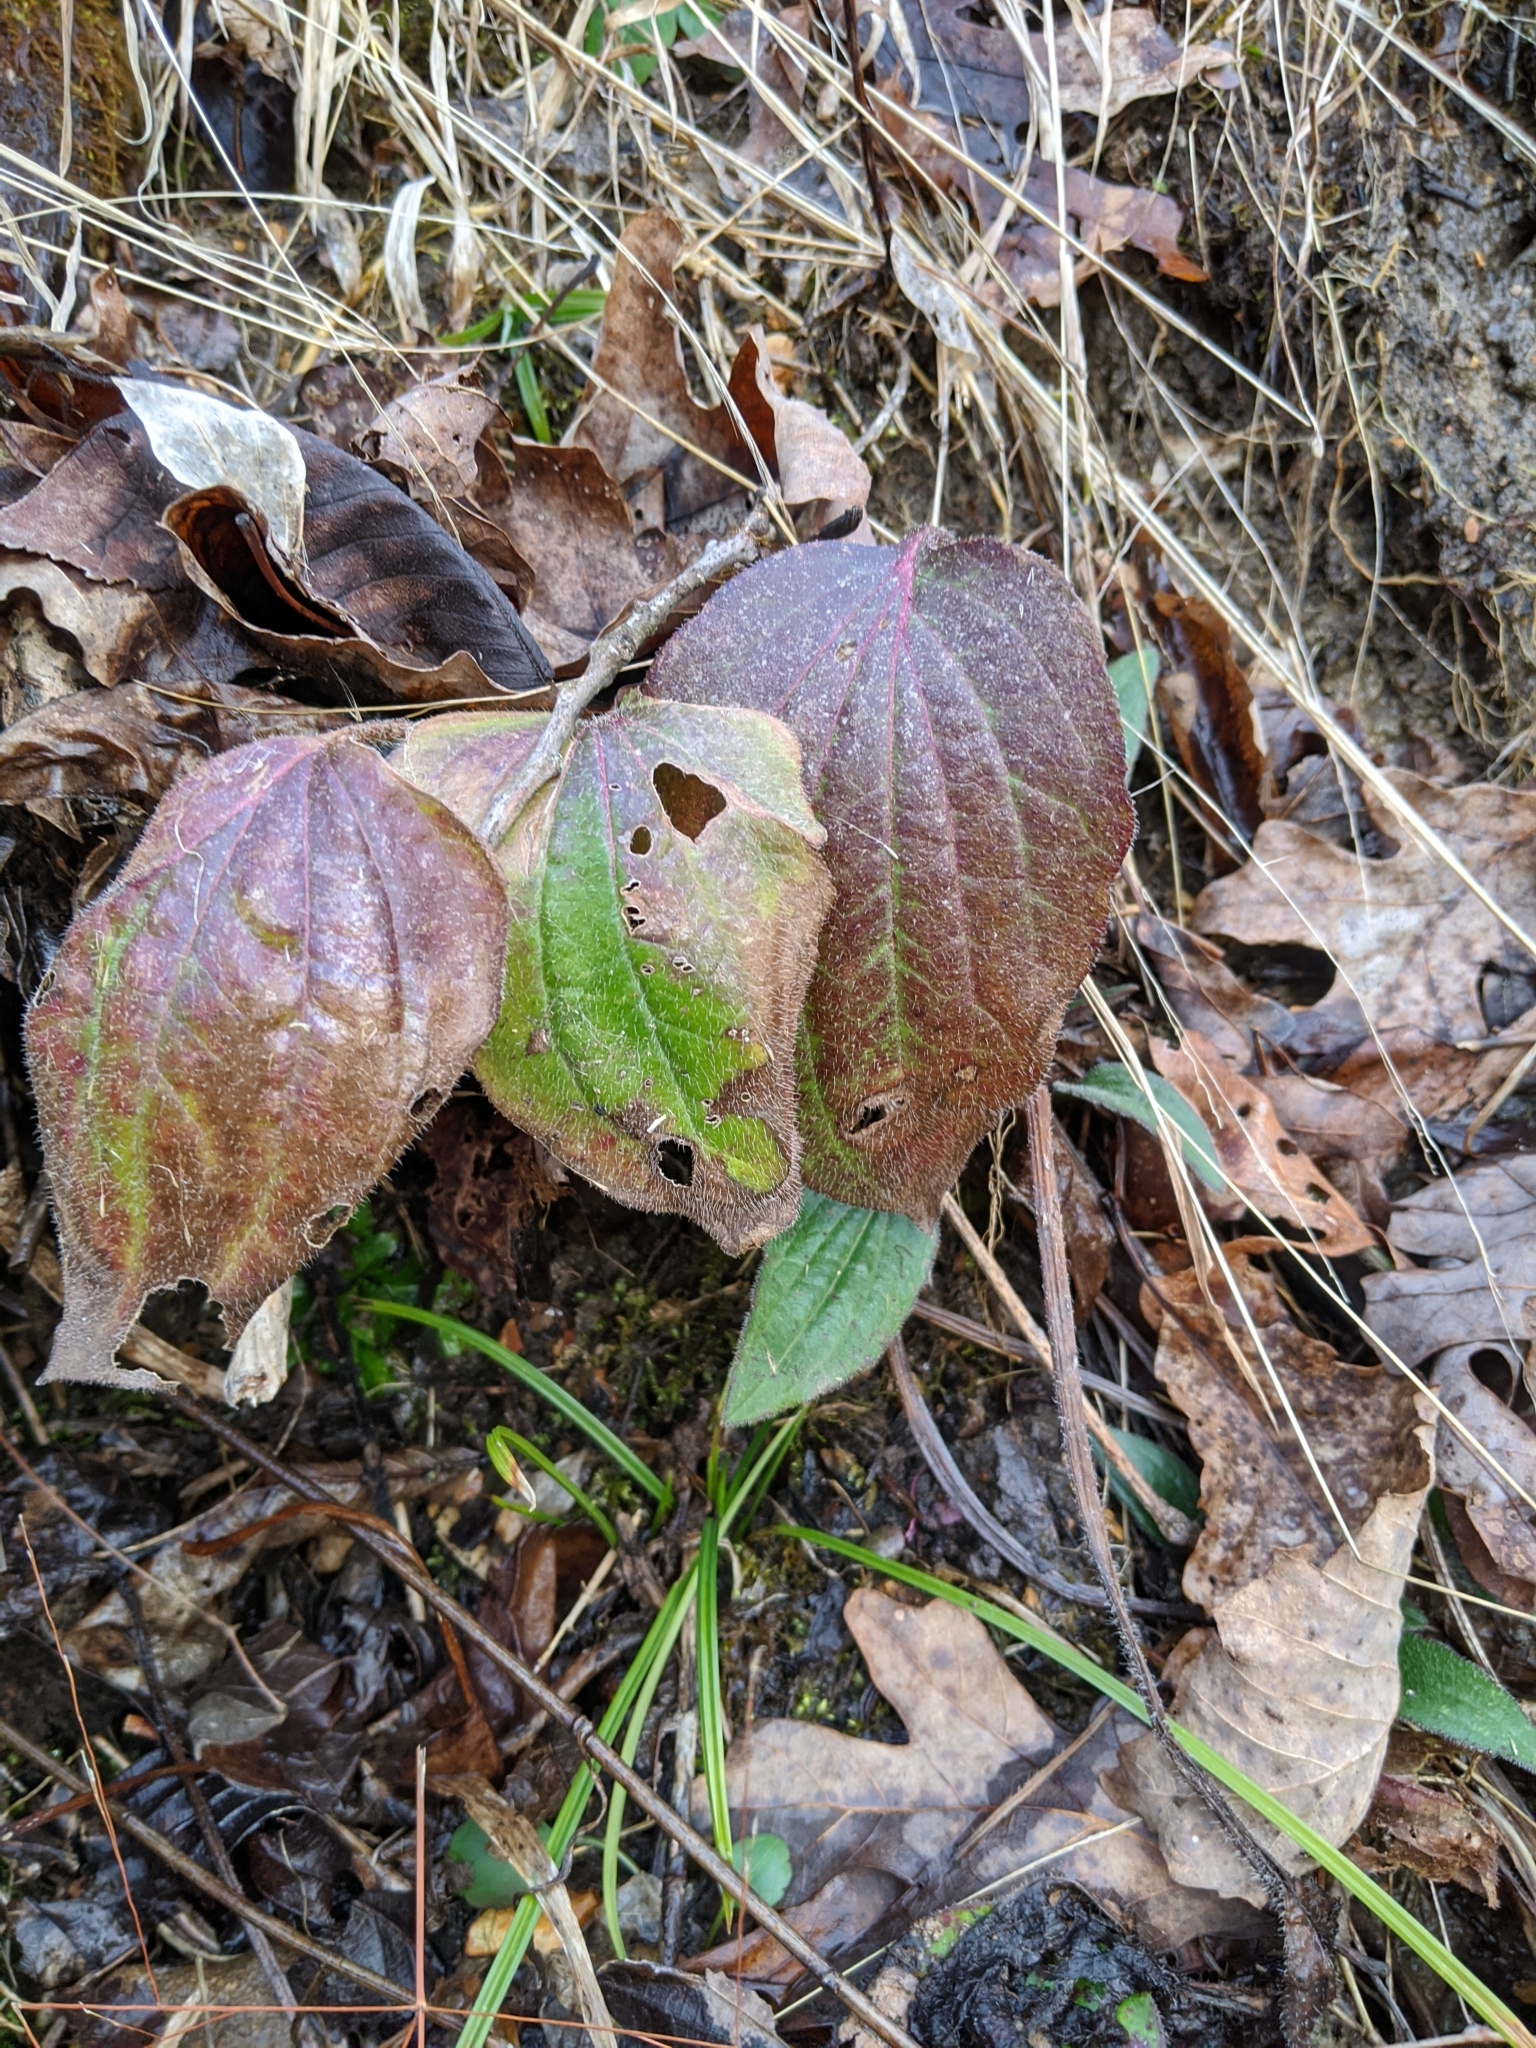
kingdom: Plantae
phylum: Tracheophyta
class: Magnoliopsida
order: Asterales
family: Asteraceae
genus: Rudbeckia
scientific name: Rudbeckia fulgida
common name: Perennial coneflower
